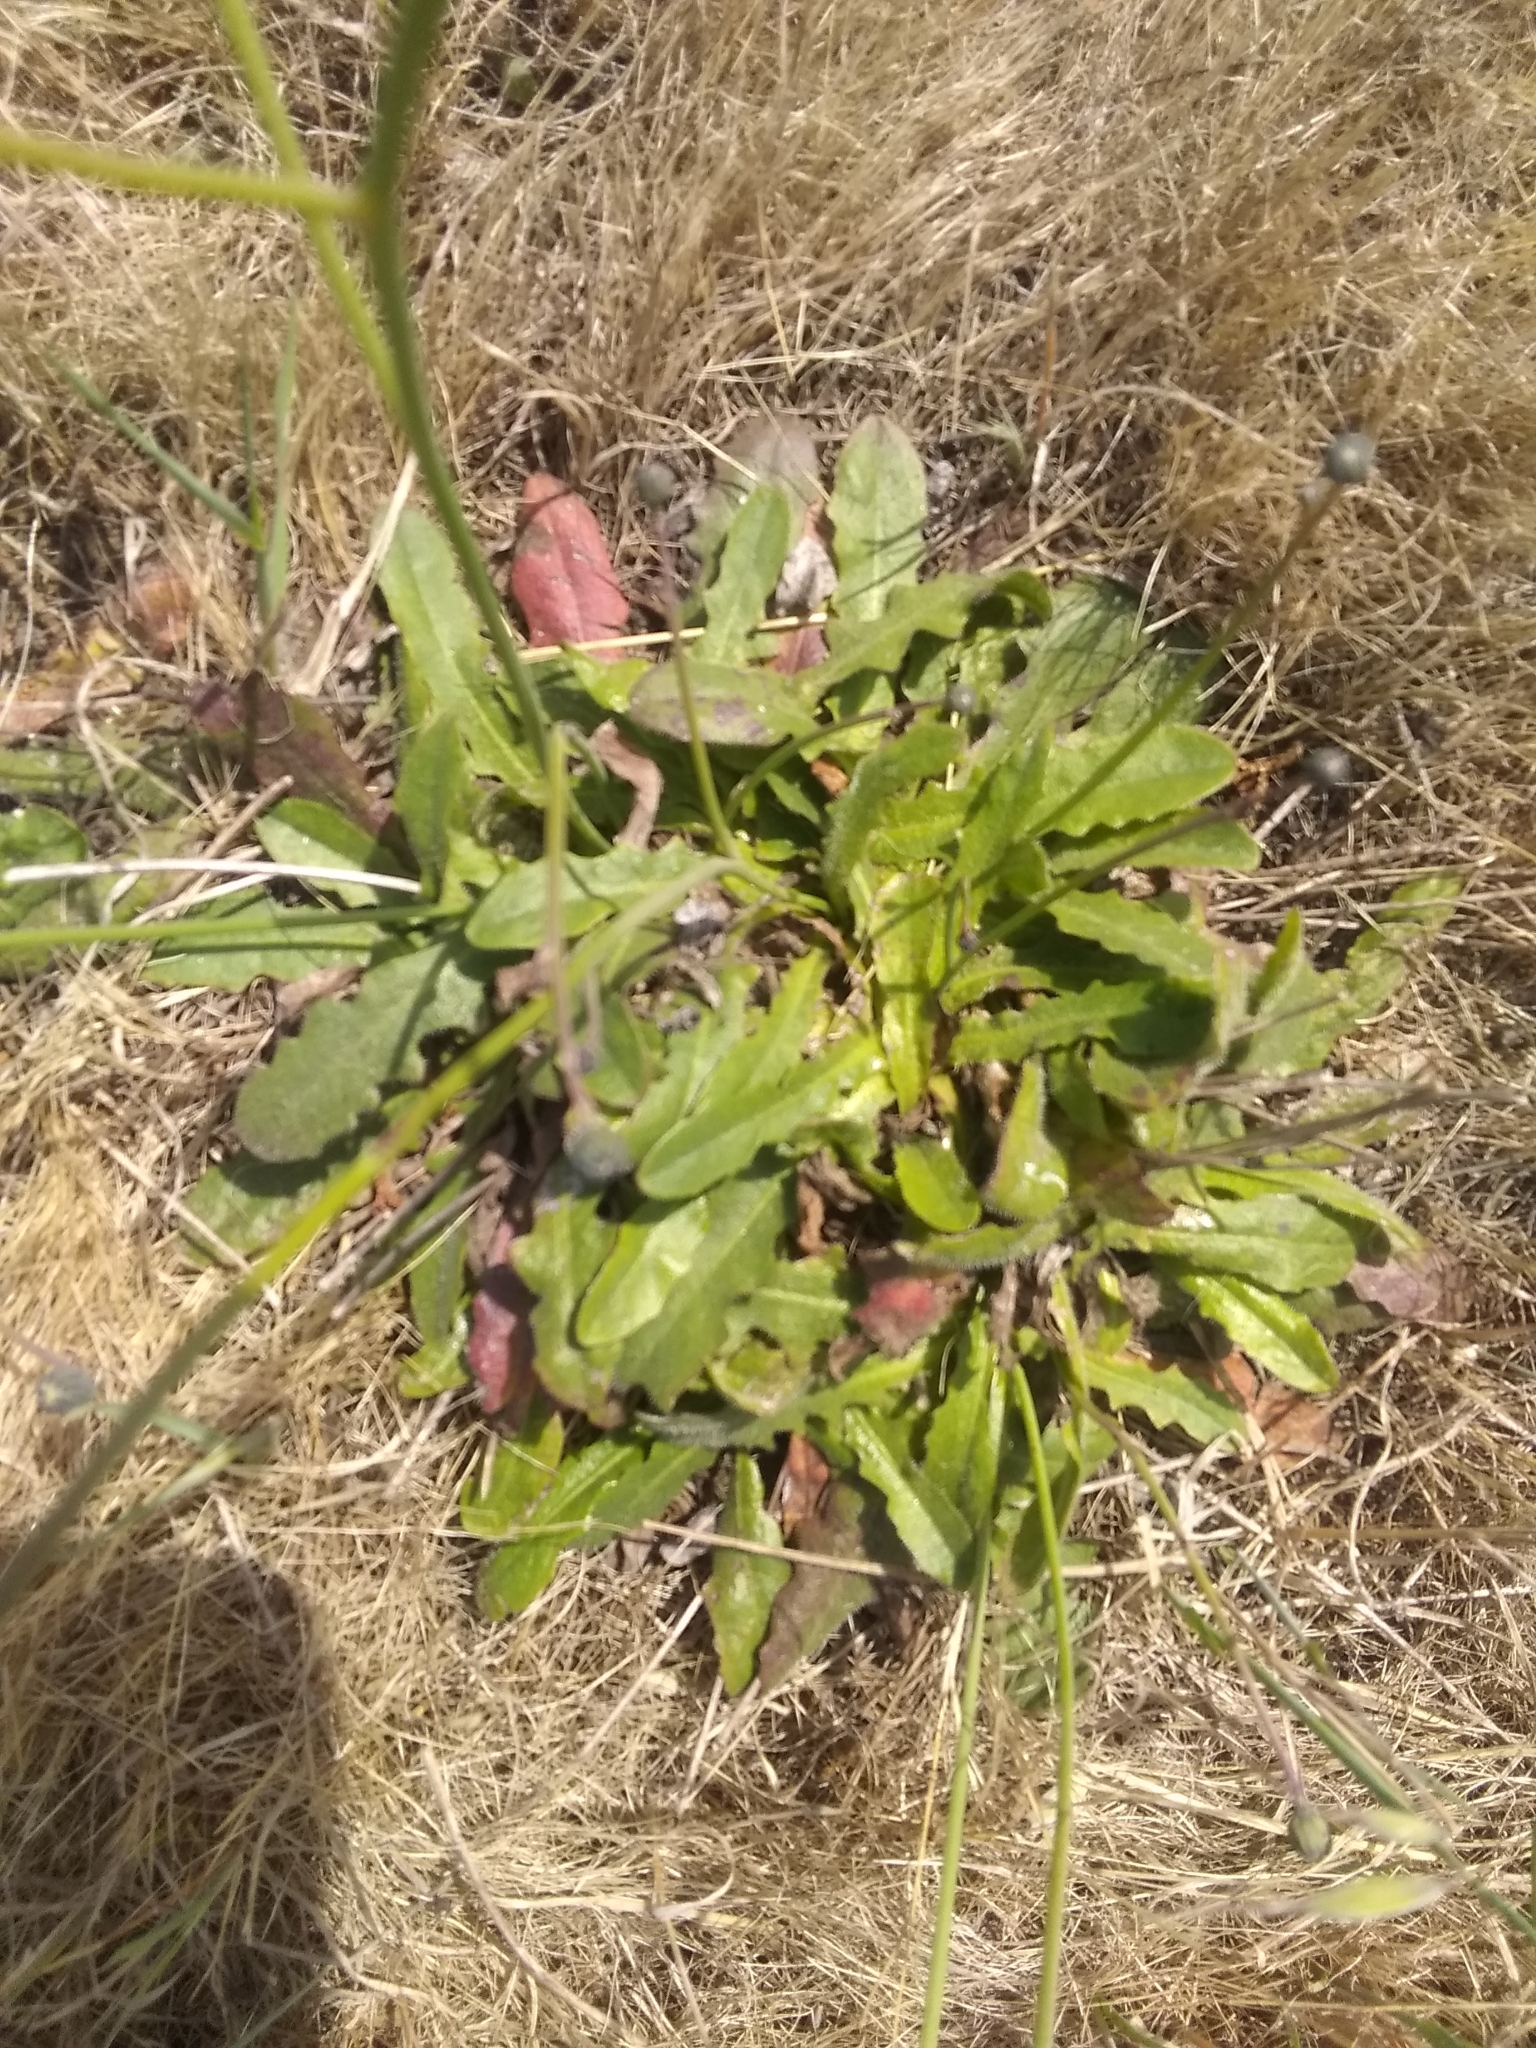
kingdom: Plantae
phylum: Tracheophyta
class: Magnoliopsida
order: Asterales
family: Asteraceae
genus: Hypochaeris
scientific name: Hypochaeris radicata
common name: Flatweed
